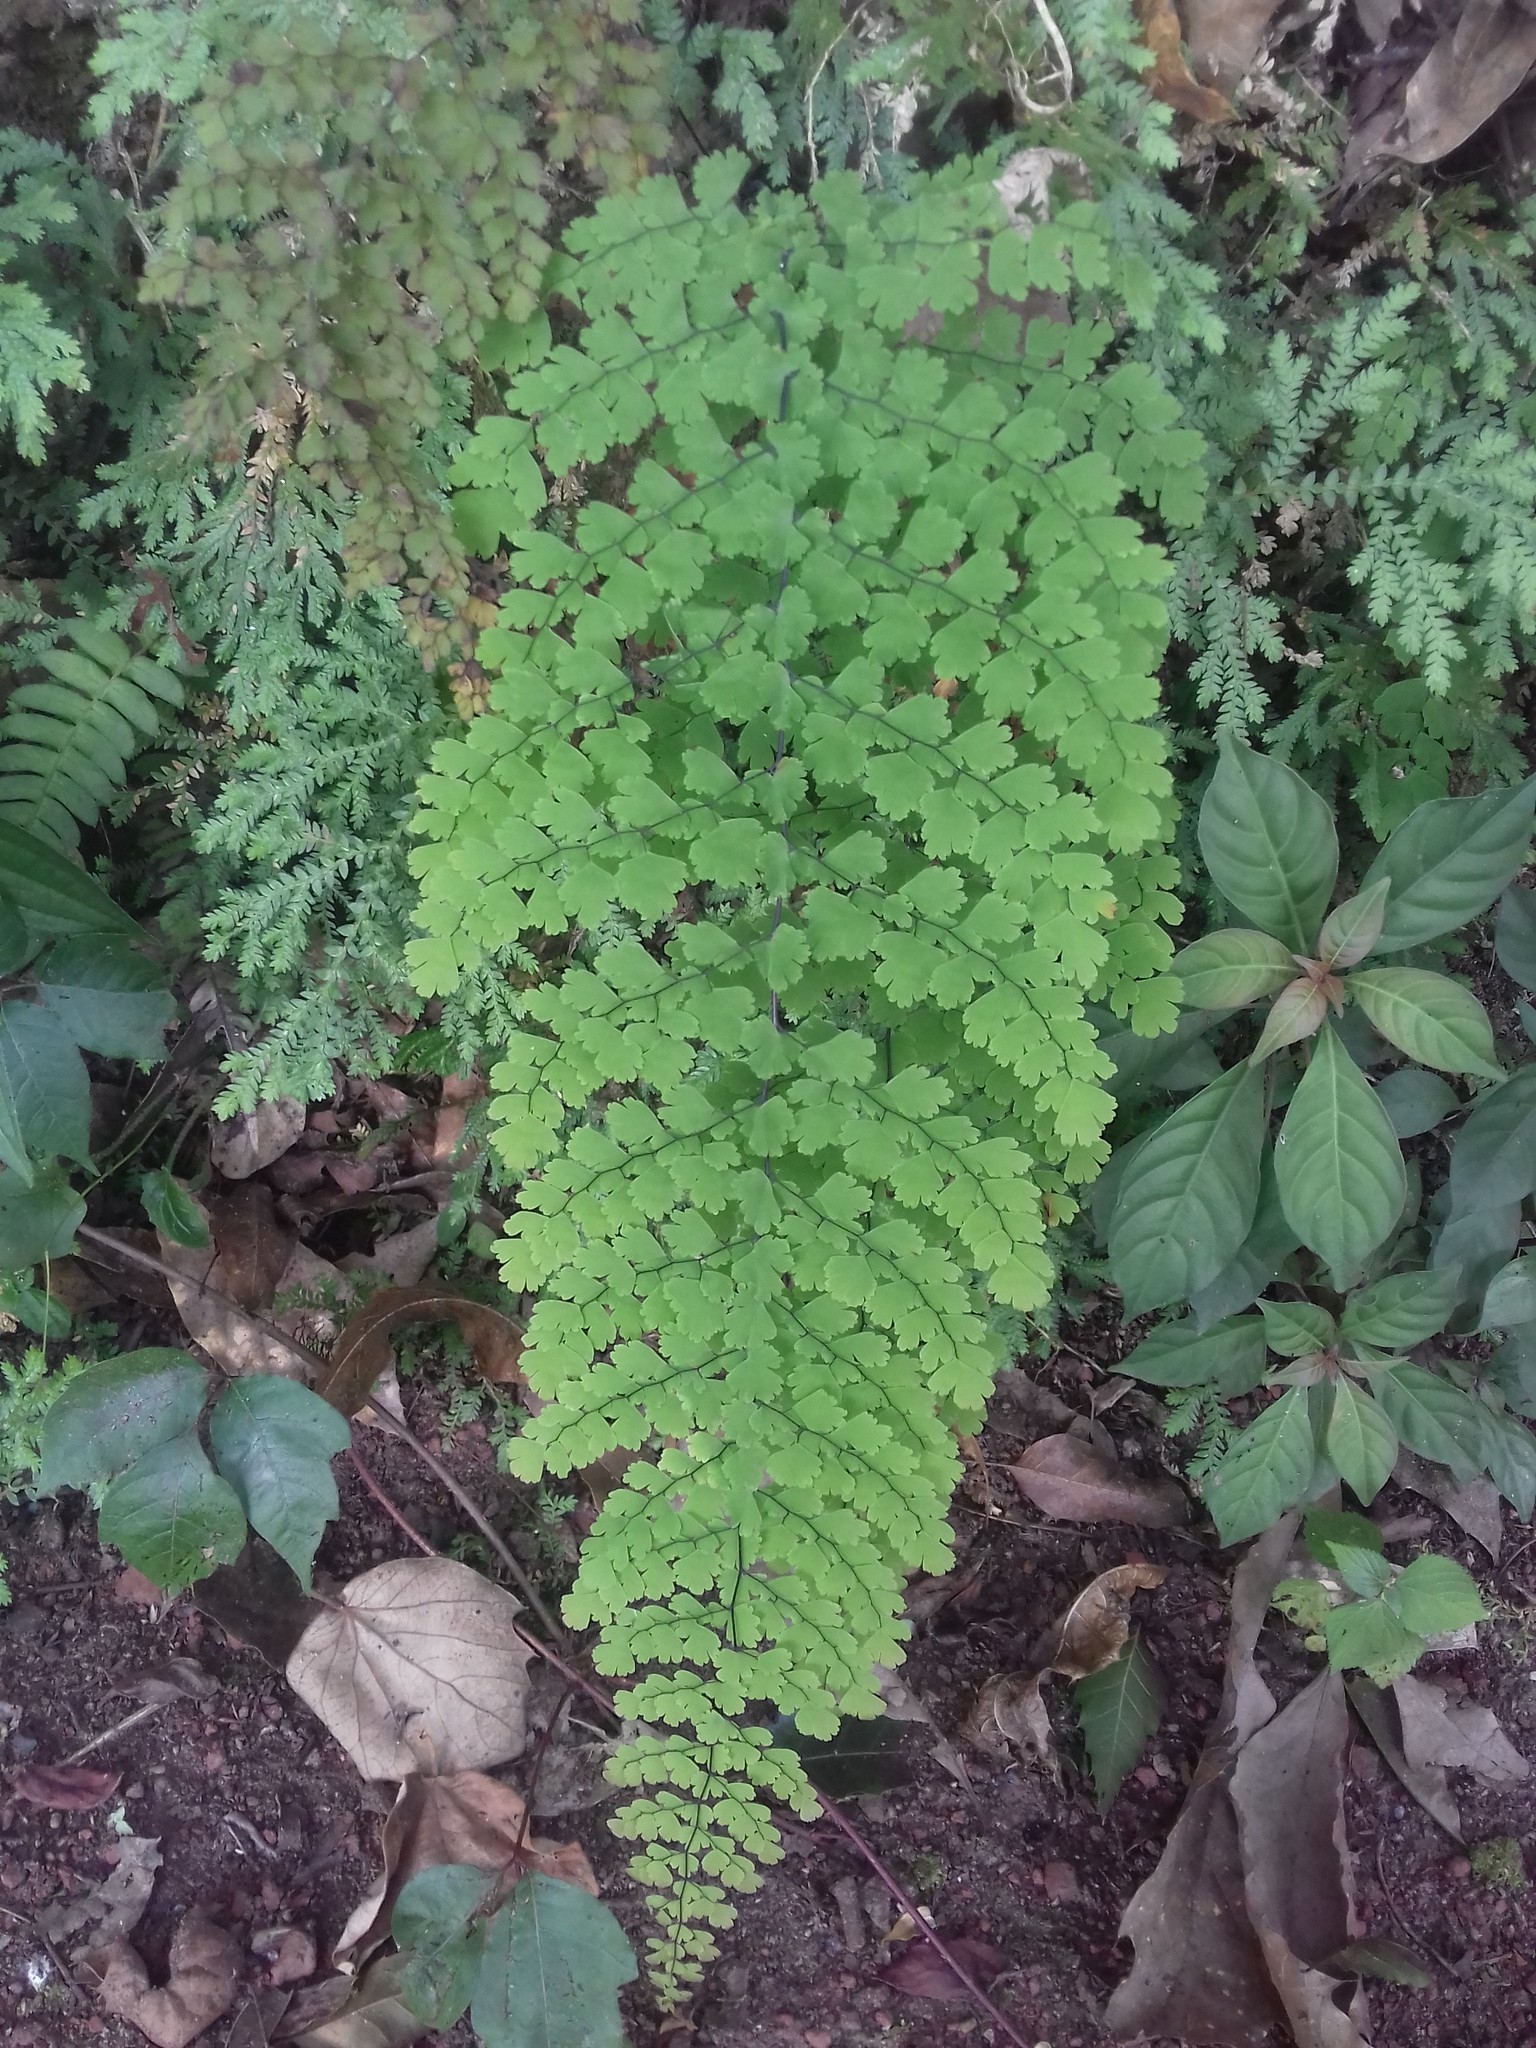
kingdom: Plantae
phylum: Tracheophyta
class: Polypodiopsida
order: Polypodiales
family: Pteridaceae
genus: Adiantum
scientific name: Adiantum concinnum
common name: Brittle maidenhair fern
